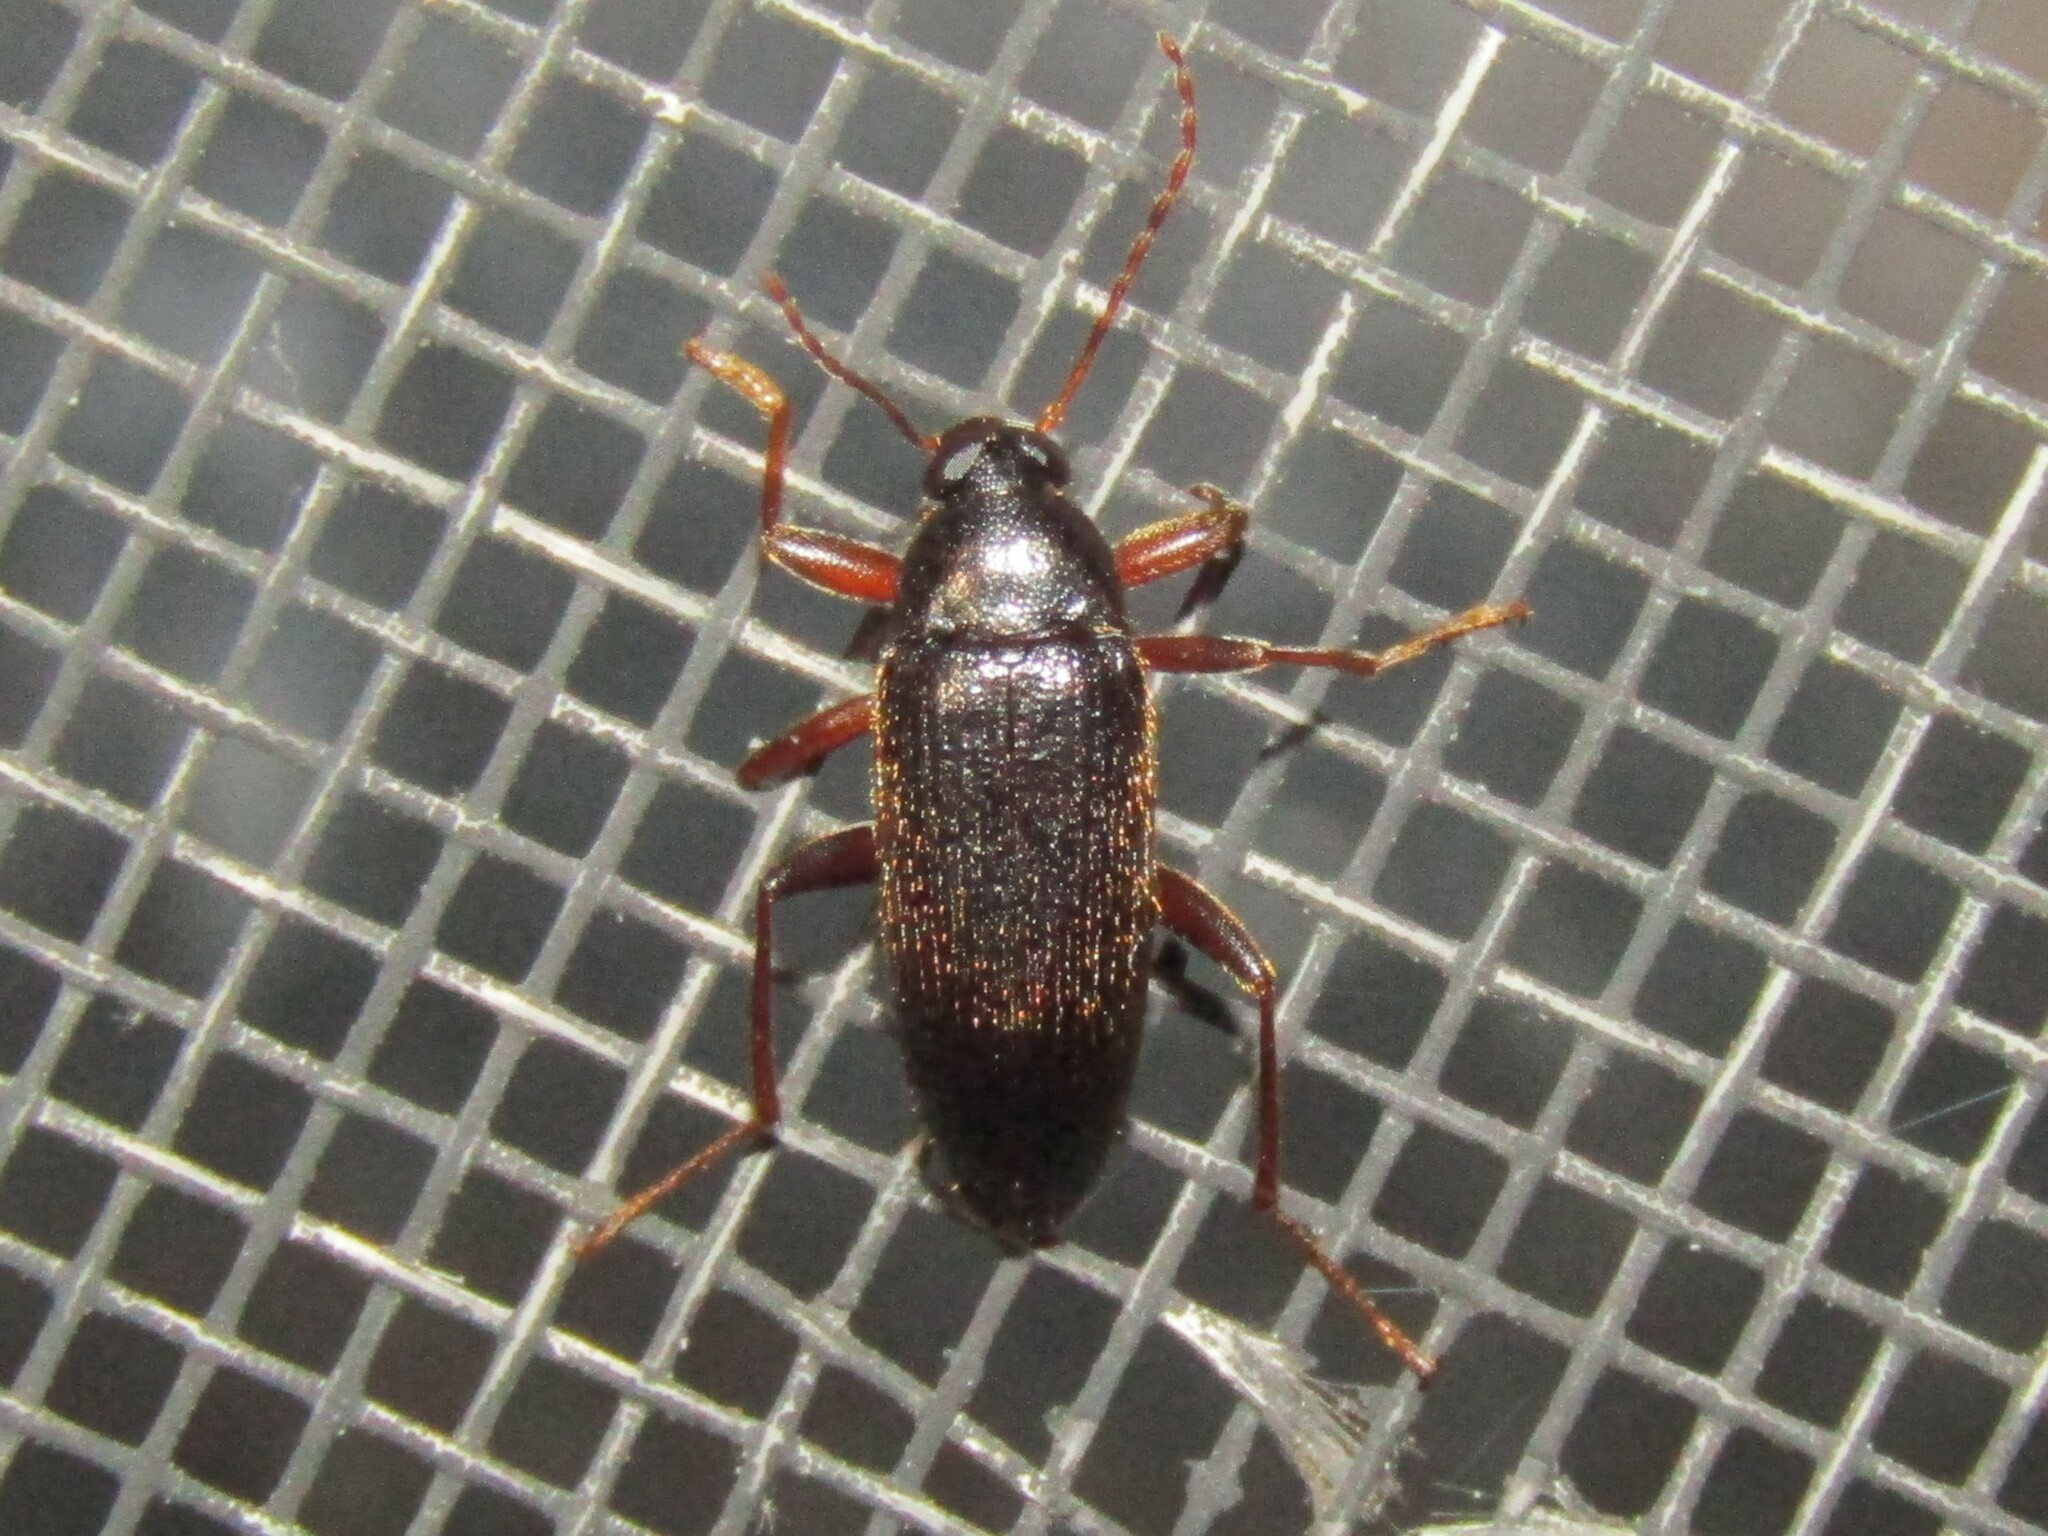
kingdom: Animalia
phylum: Arthropoda
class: Insecta
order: Coleoptera
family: Tenebrionidae
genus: Lobopoda
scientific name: Lobopoda erythrocnemis
